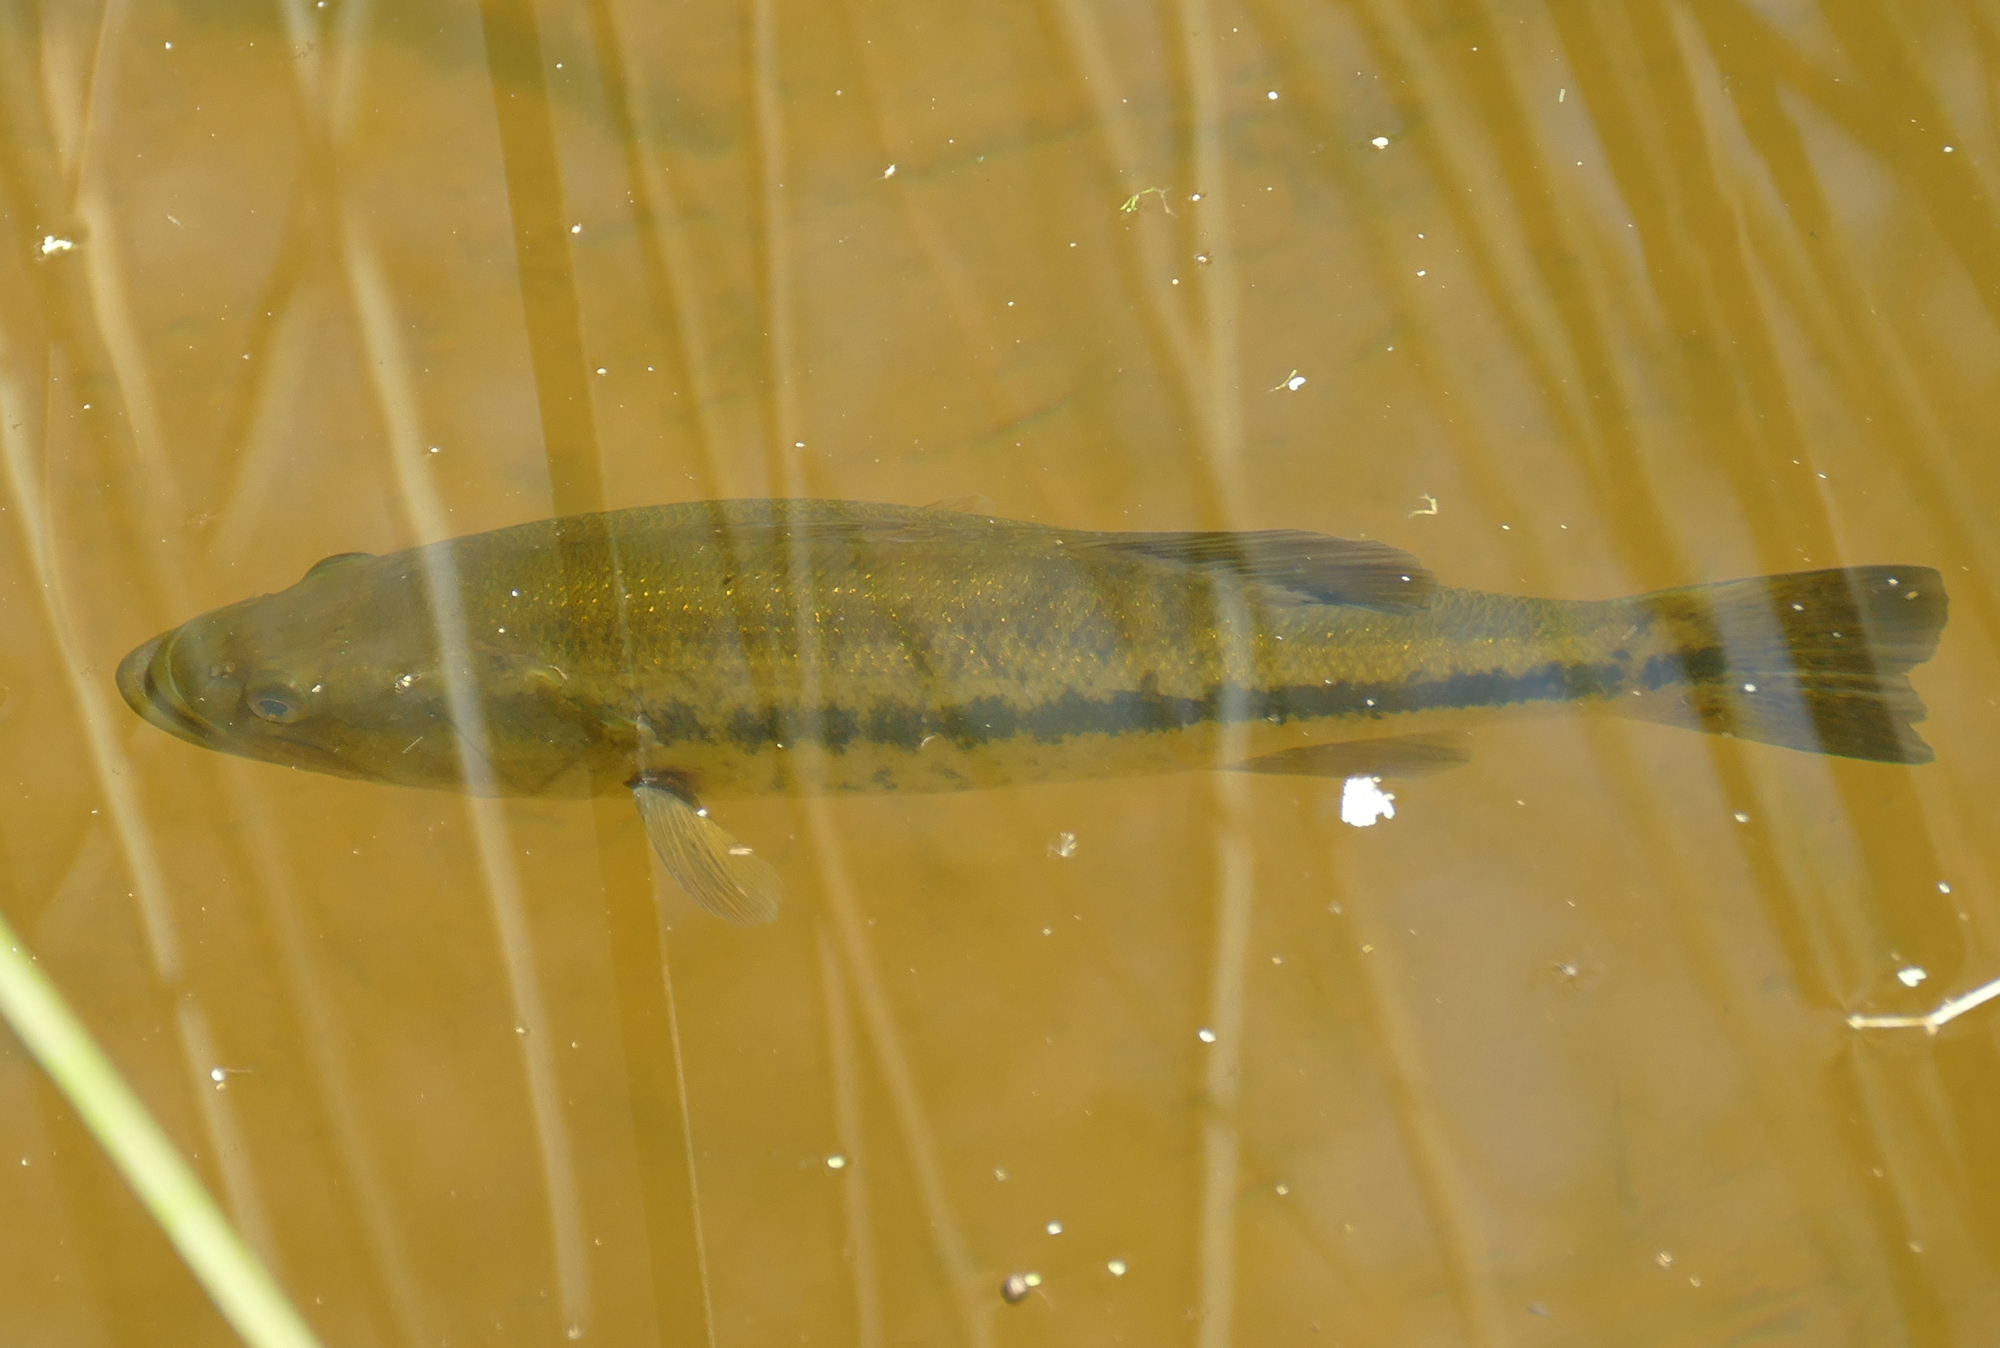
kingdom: Animalia
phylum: Chordata
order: Perciformes
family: Centrarchidae
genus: Micropterus
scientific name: Micropterus
